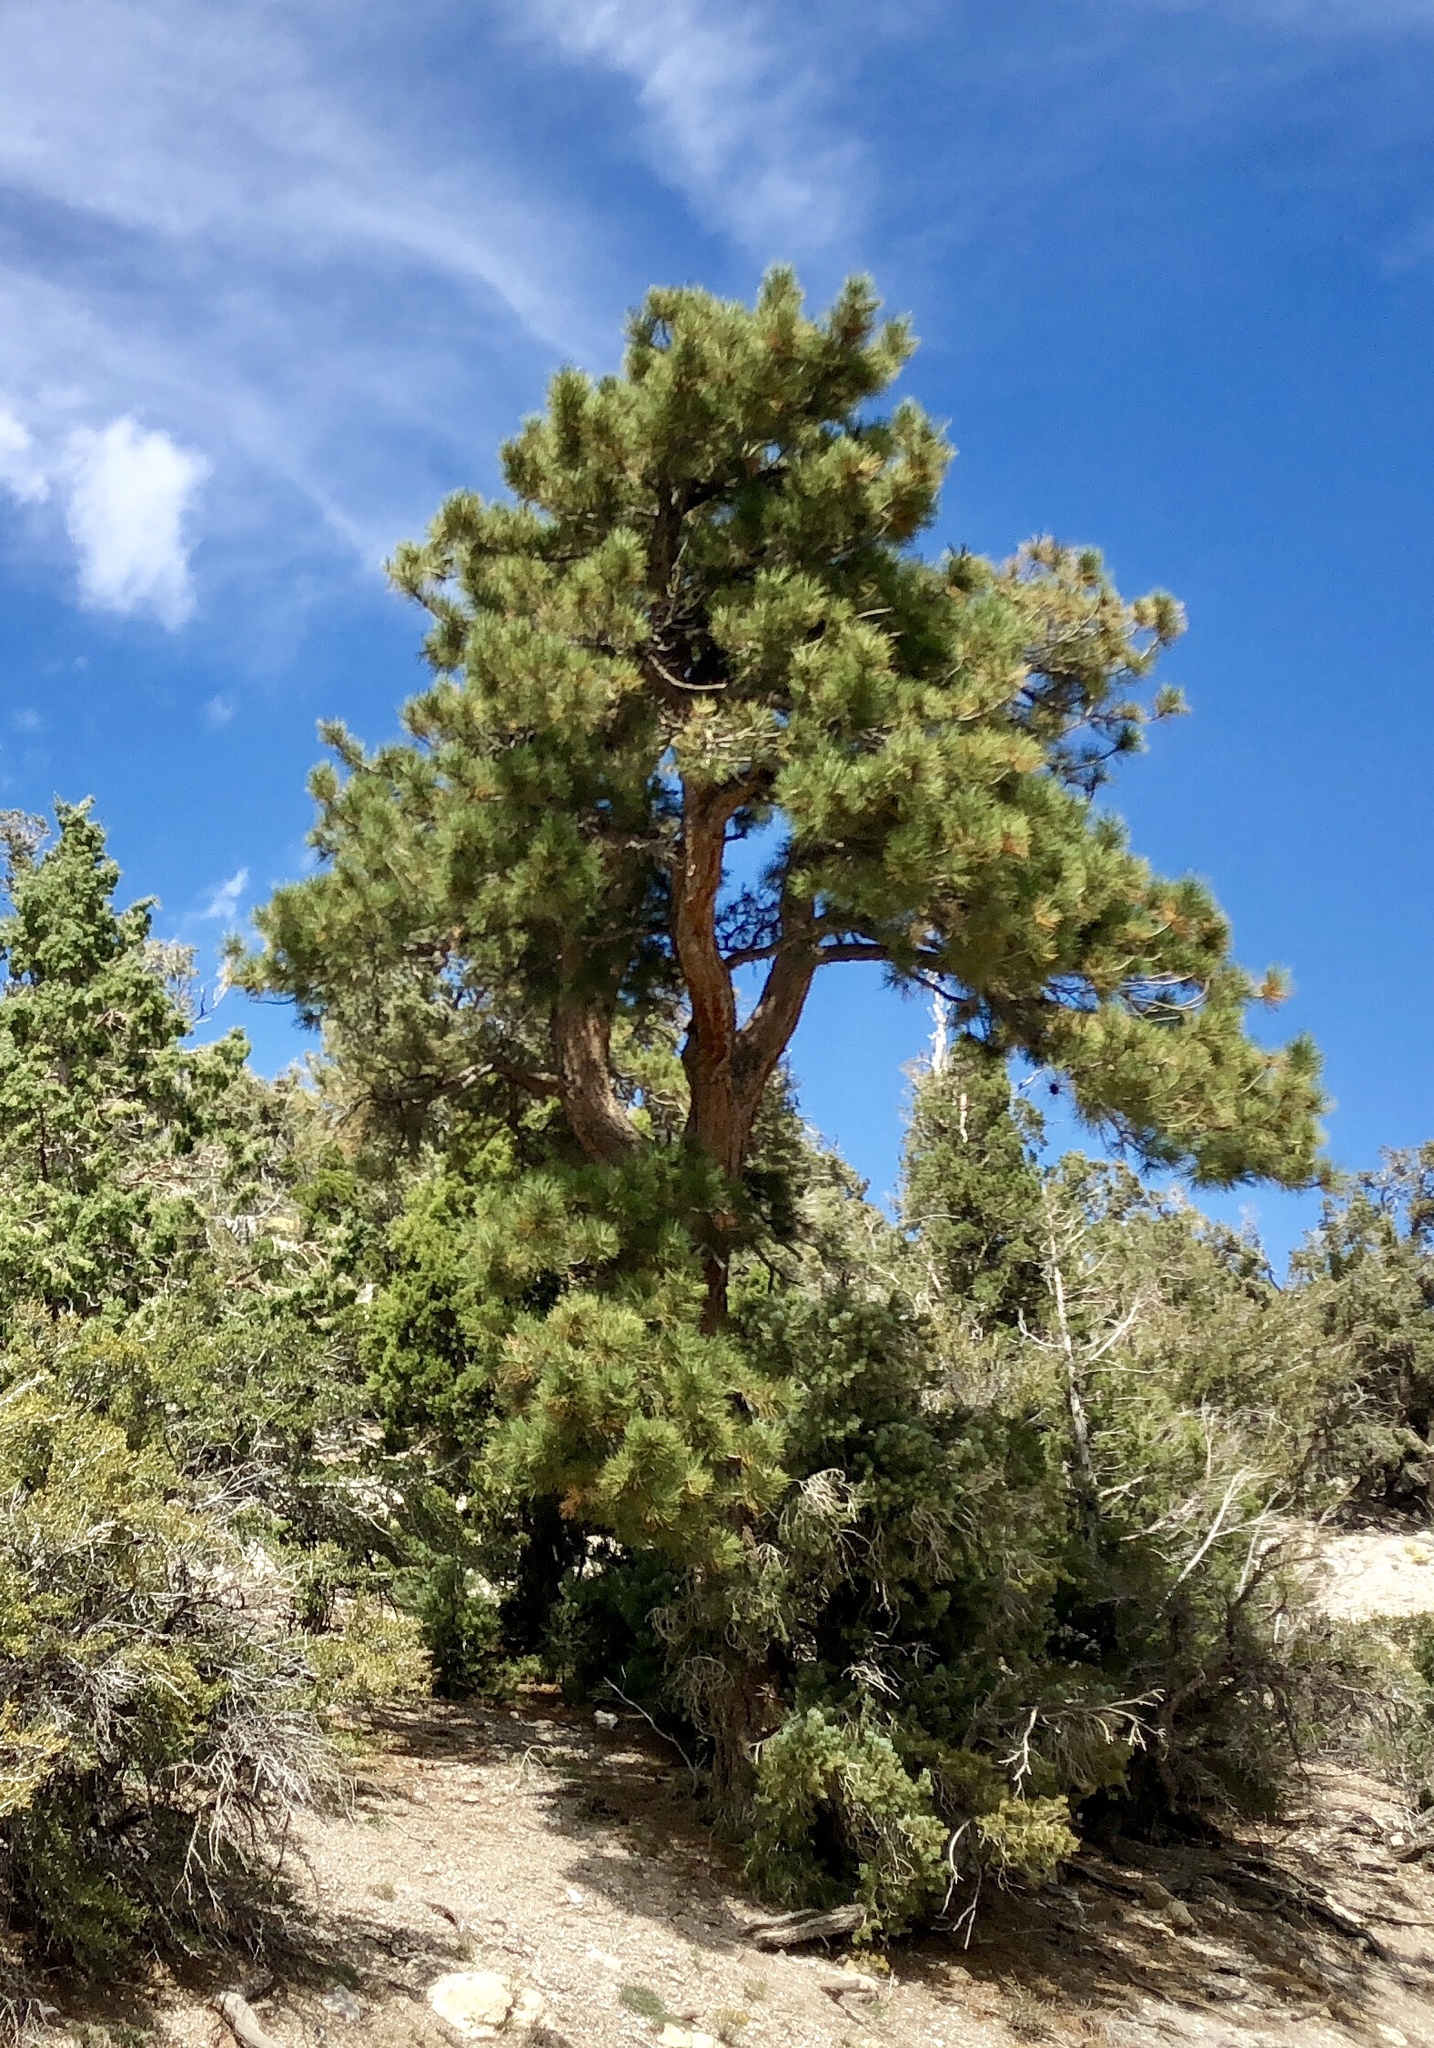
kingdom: Plantae
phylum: Tracheophyta
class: Pinopsida
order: Pinales
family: Pinaceae
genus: Pinus
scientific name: Pinus ponderosa
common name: Western yellow-pine
